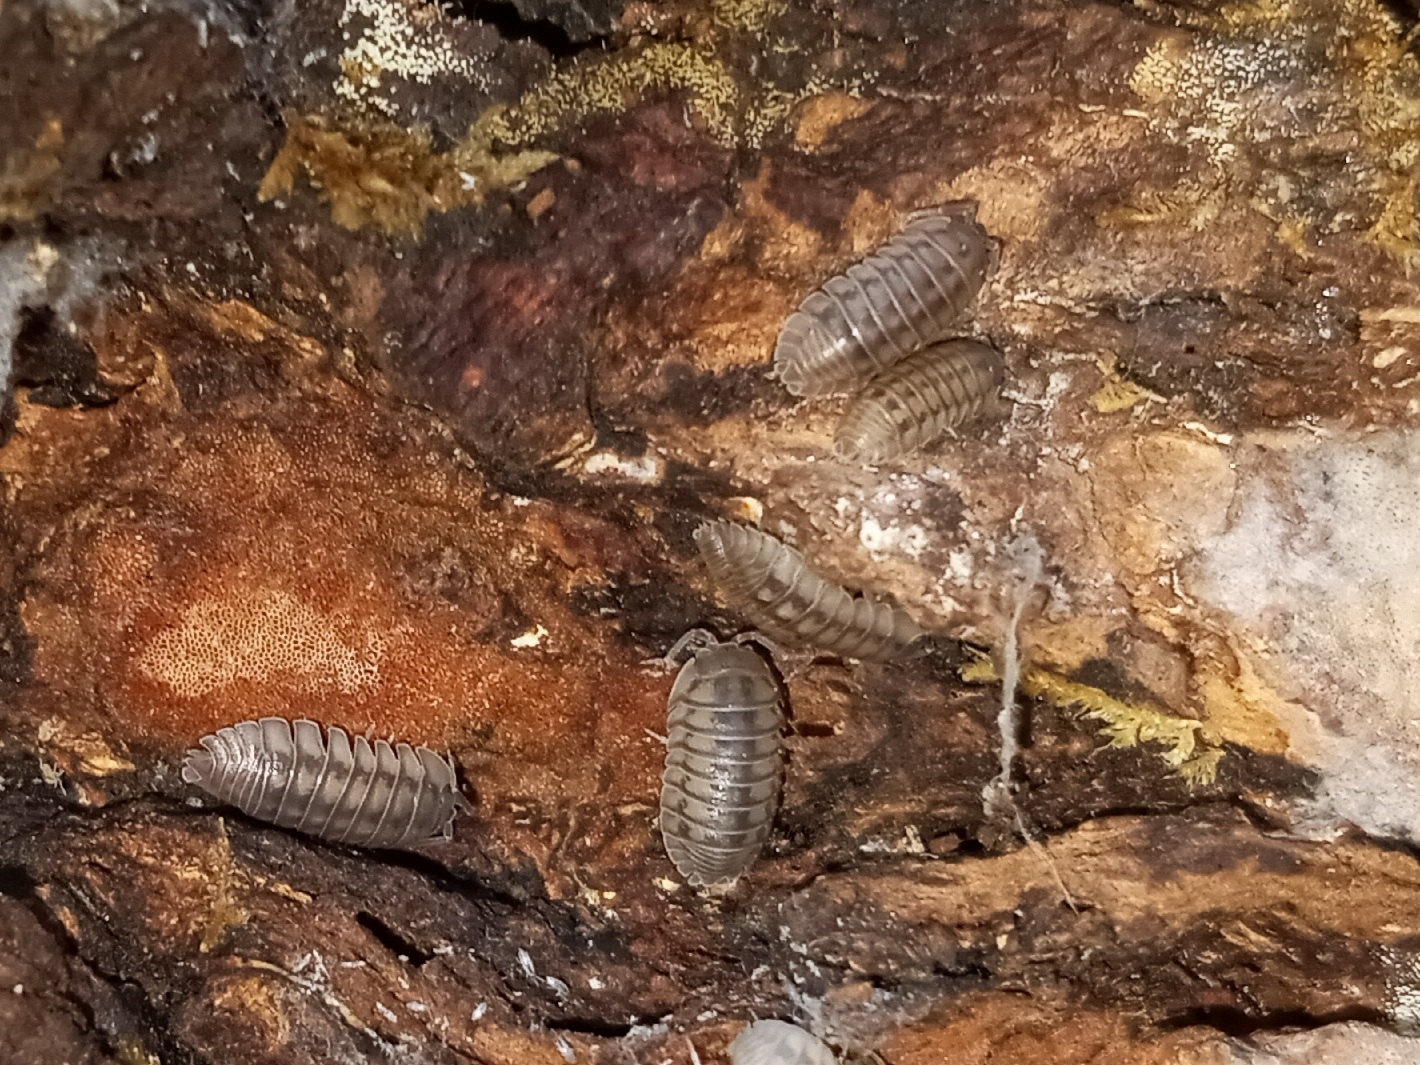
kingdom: Animalia
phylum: Arthropoda
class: Malacostraca
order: Isopoda
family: Armadillidiidae
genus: Armadillidium
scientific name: Armadillidium nasatum
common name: Isopod
